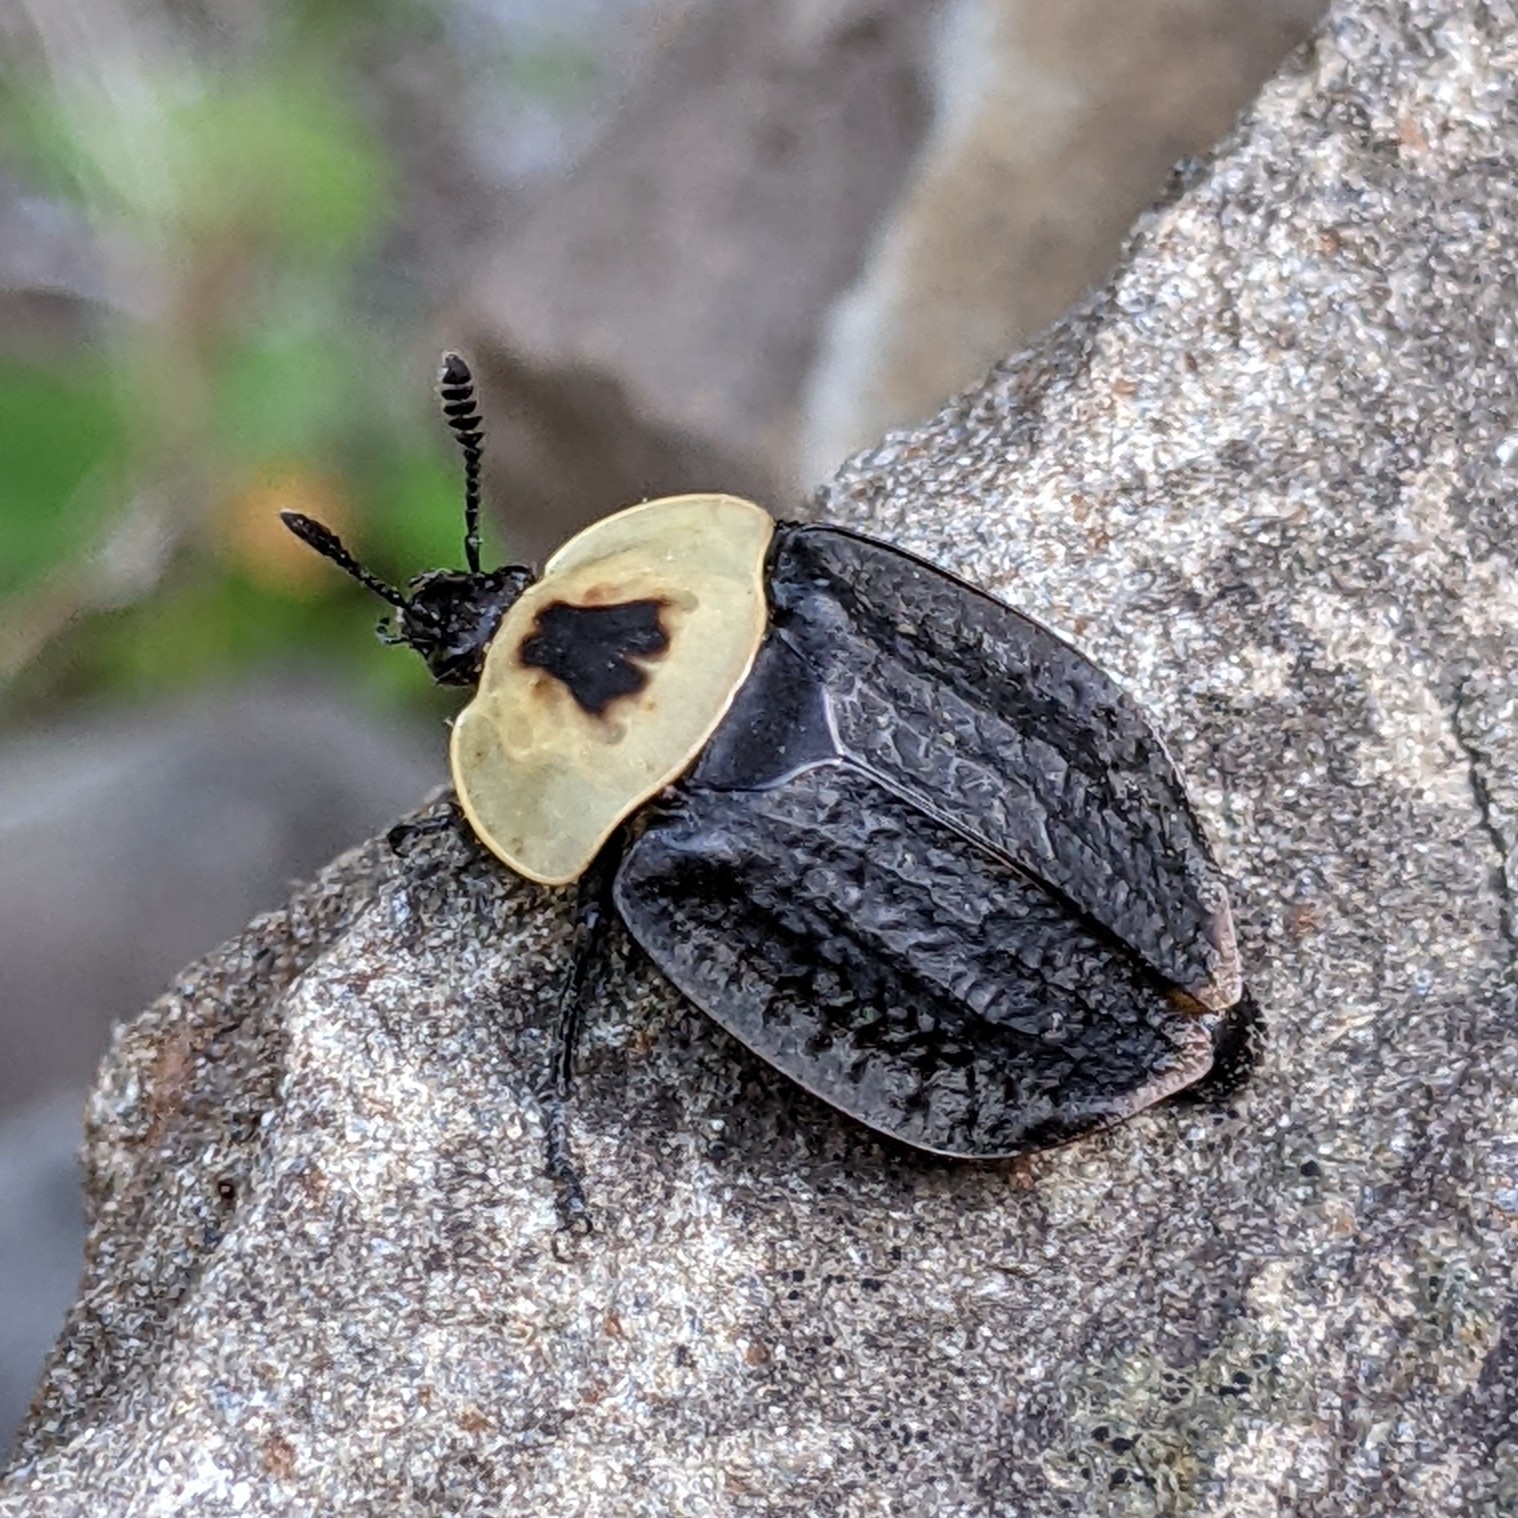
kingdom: Animalia
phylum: Arthropoda
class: Insecta
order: Coleoptera
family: Staphylinidae
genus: Necrophila
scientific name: Necrophila americana
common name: American carrion beetle
